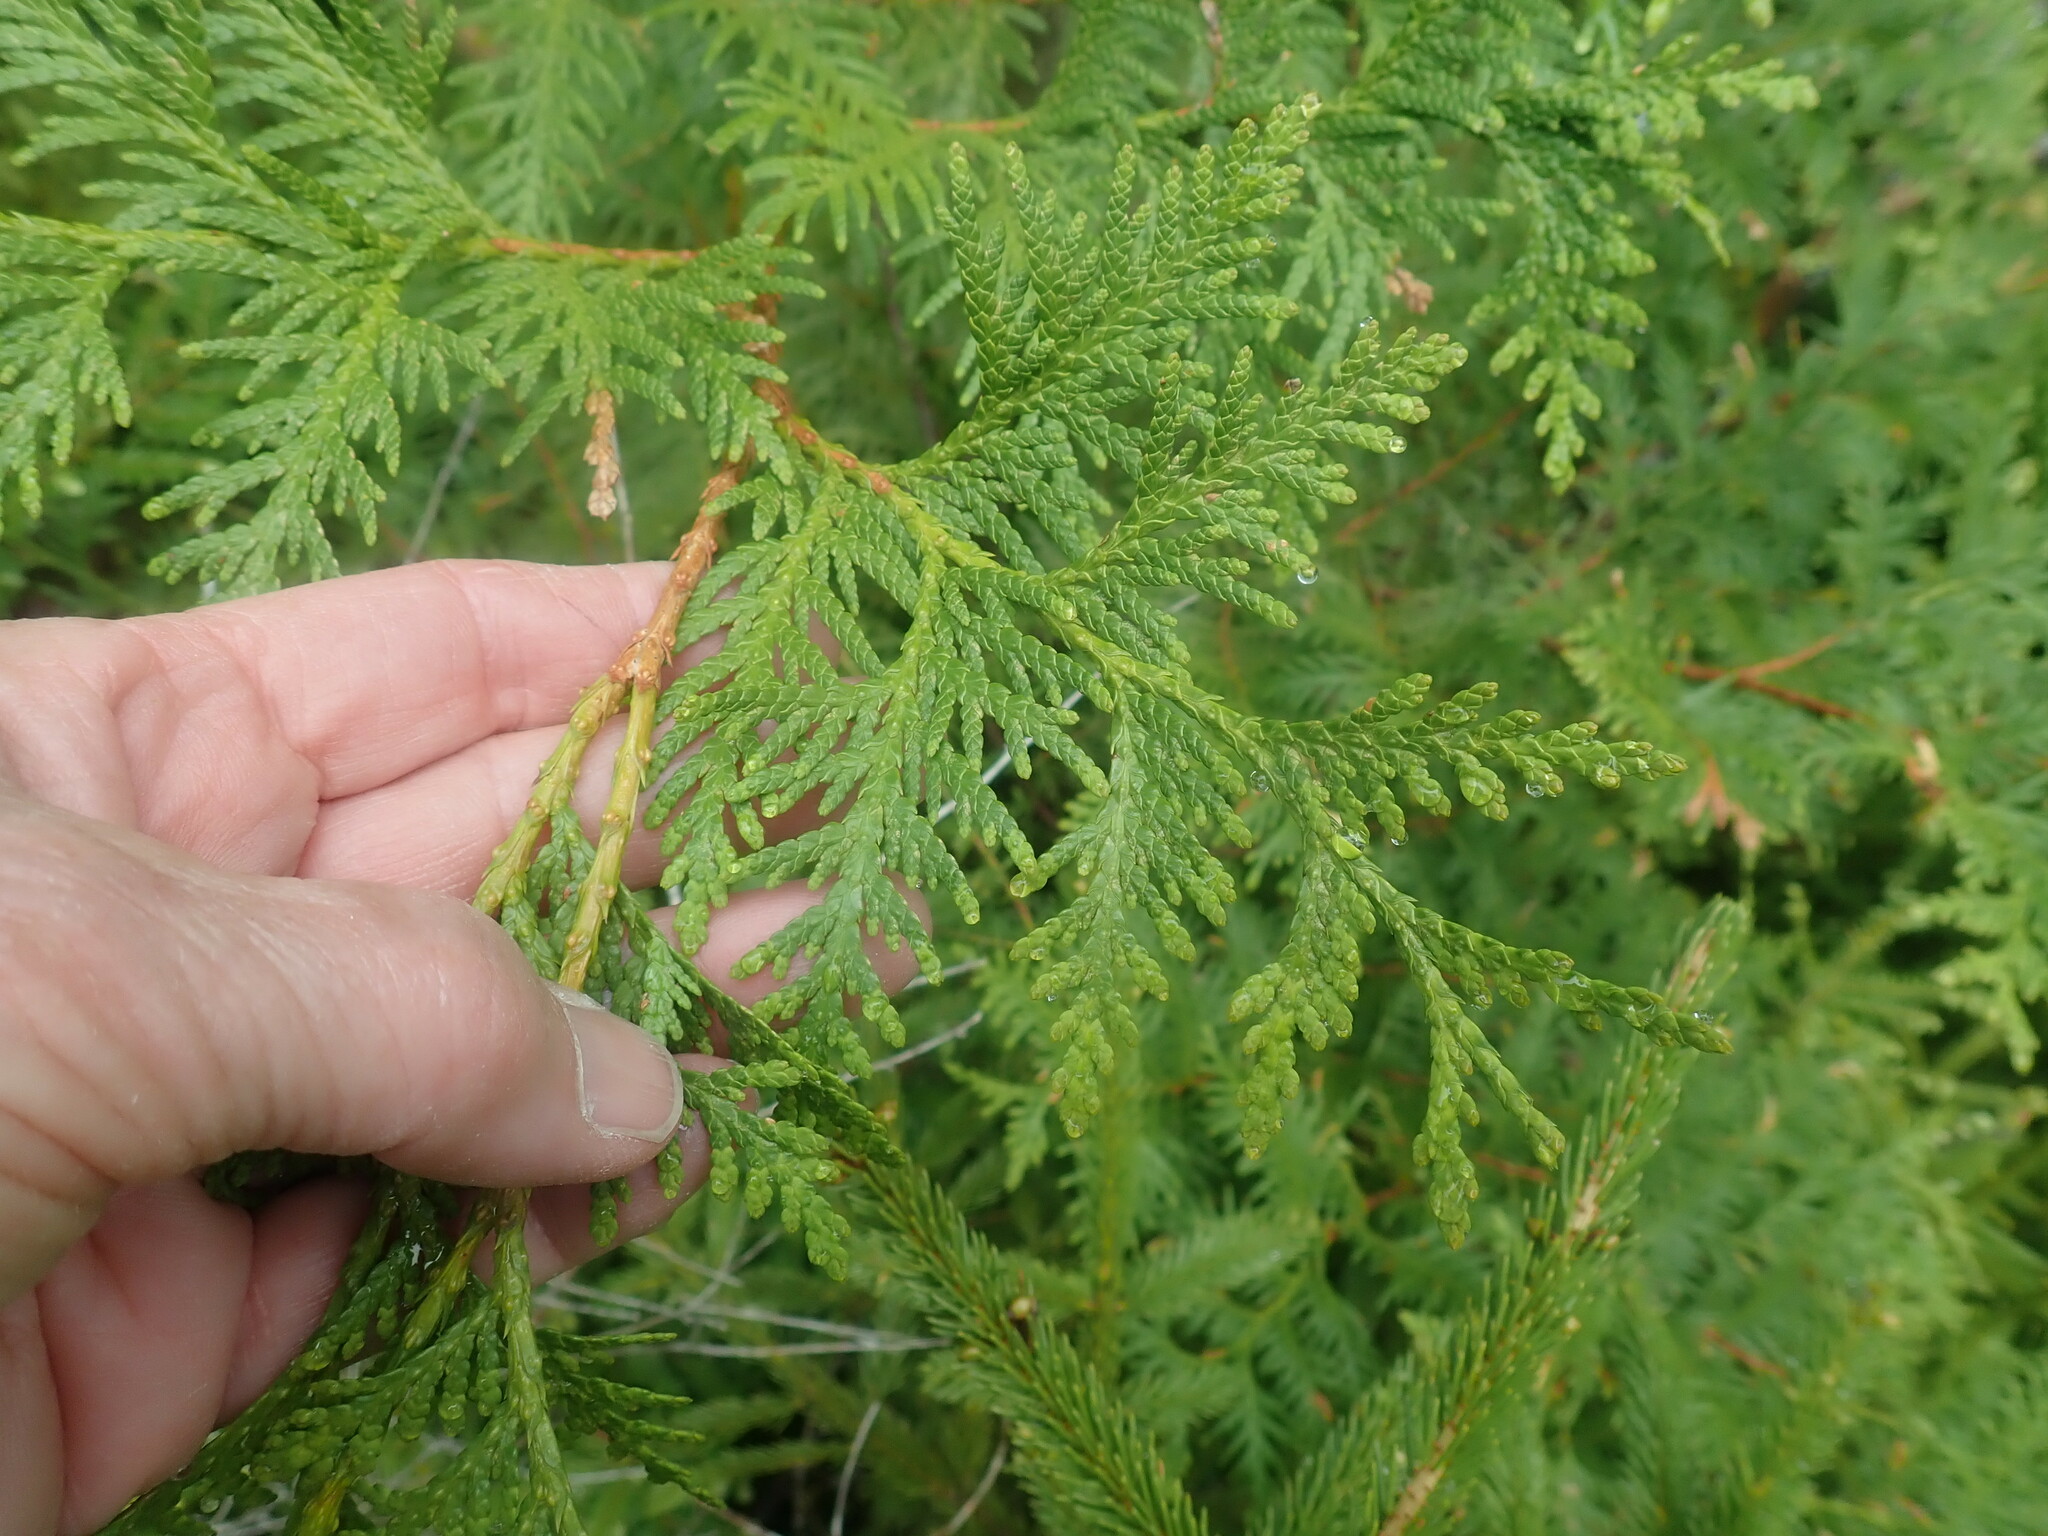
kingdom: Plantae
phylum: Tracheophyta
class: Pinopsida
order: Pinales
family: Cupressaceae
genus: Thuja
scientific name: Thuja occidentalis
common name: Northern white-cedar
